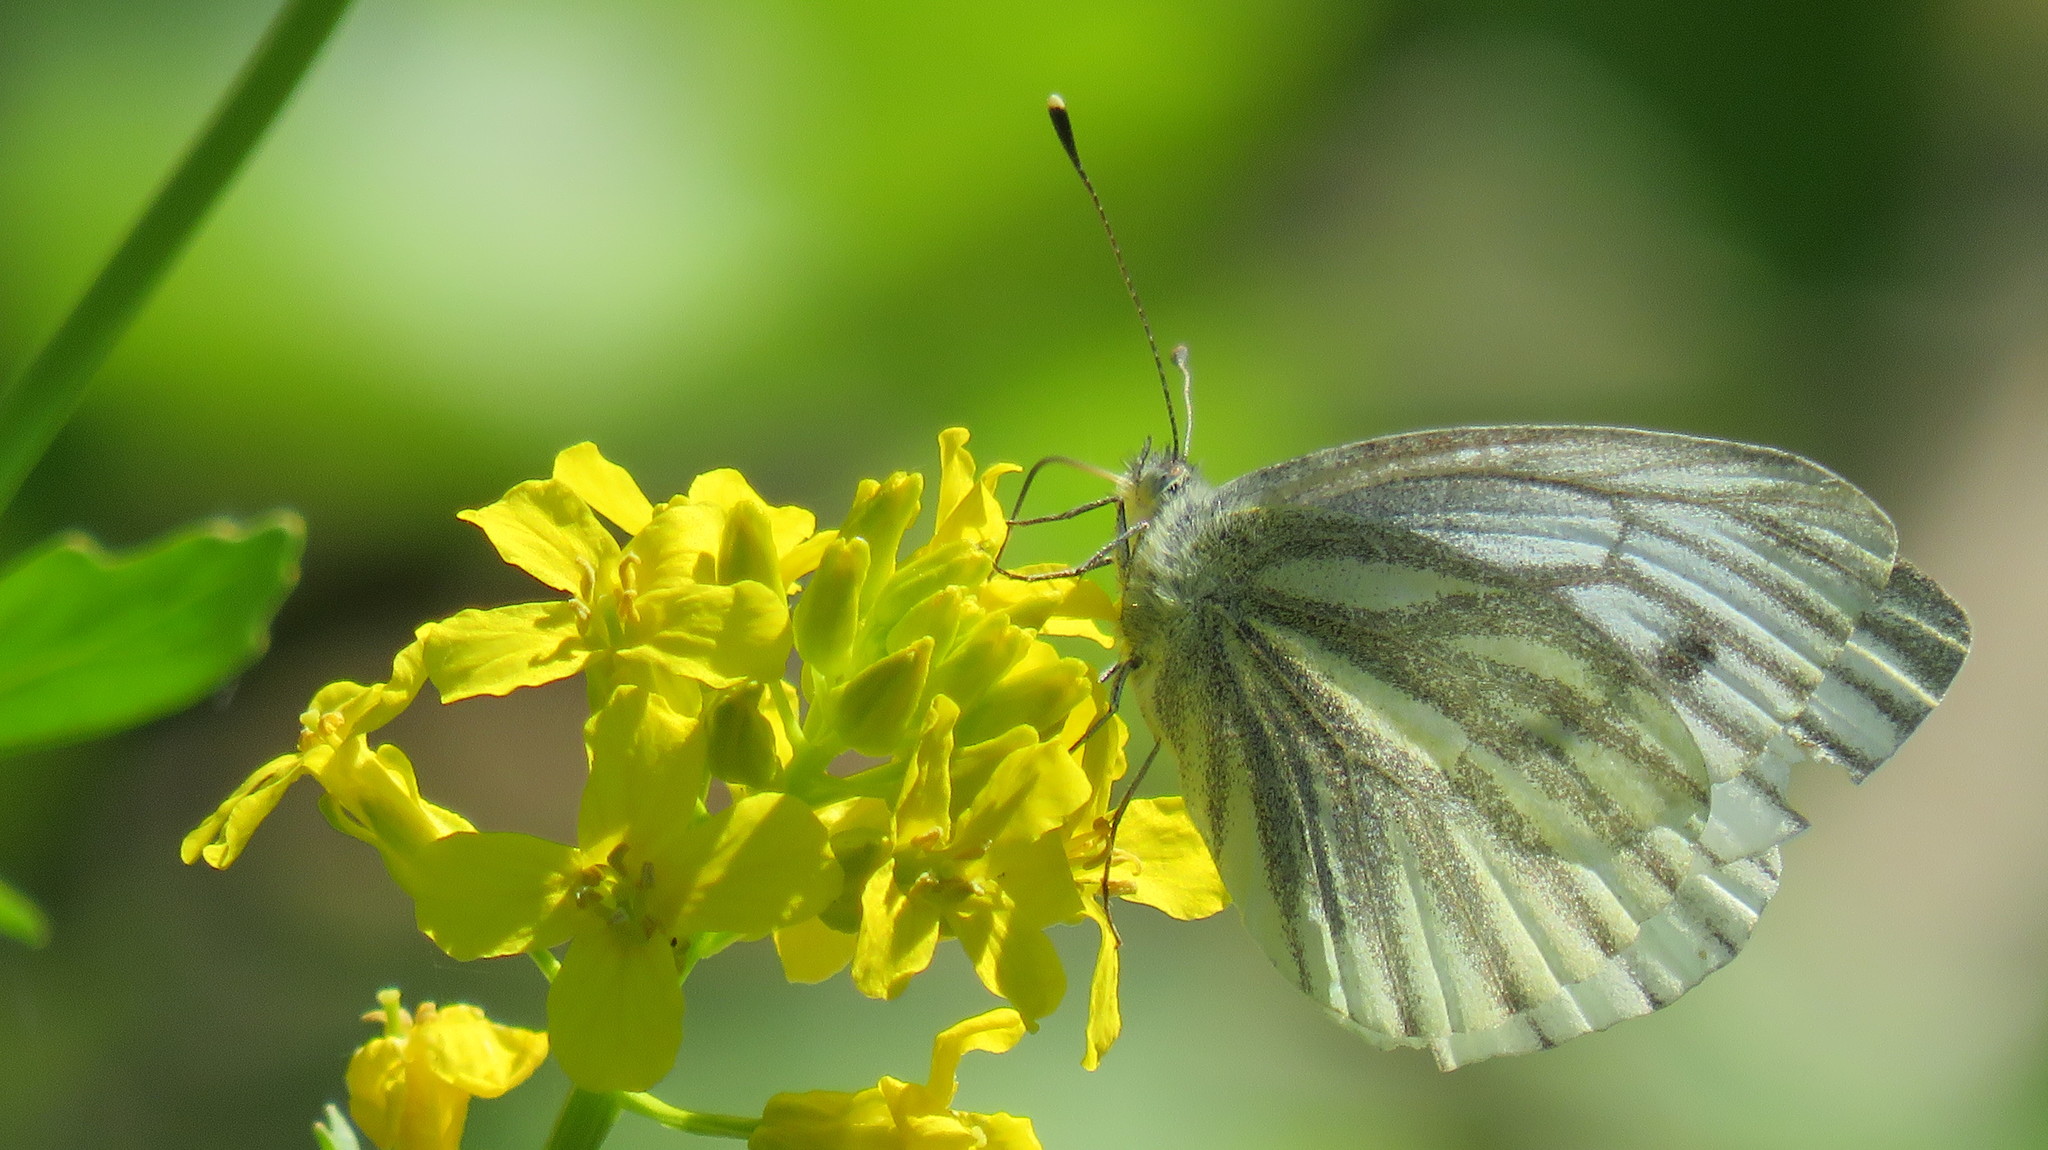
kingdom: Animalia
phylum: Arthropoda
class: Insecta
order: Lepidoptera
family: Pieridae
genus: Pieris
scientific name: Pieris napi
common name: Green-veined white
